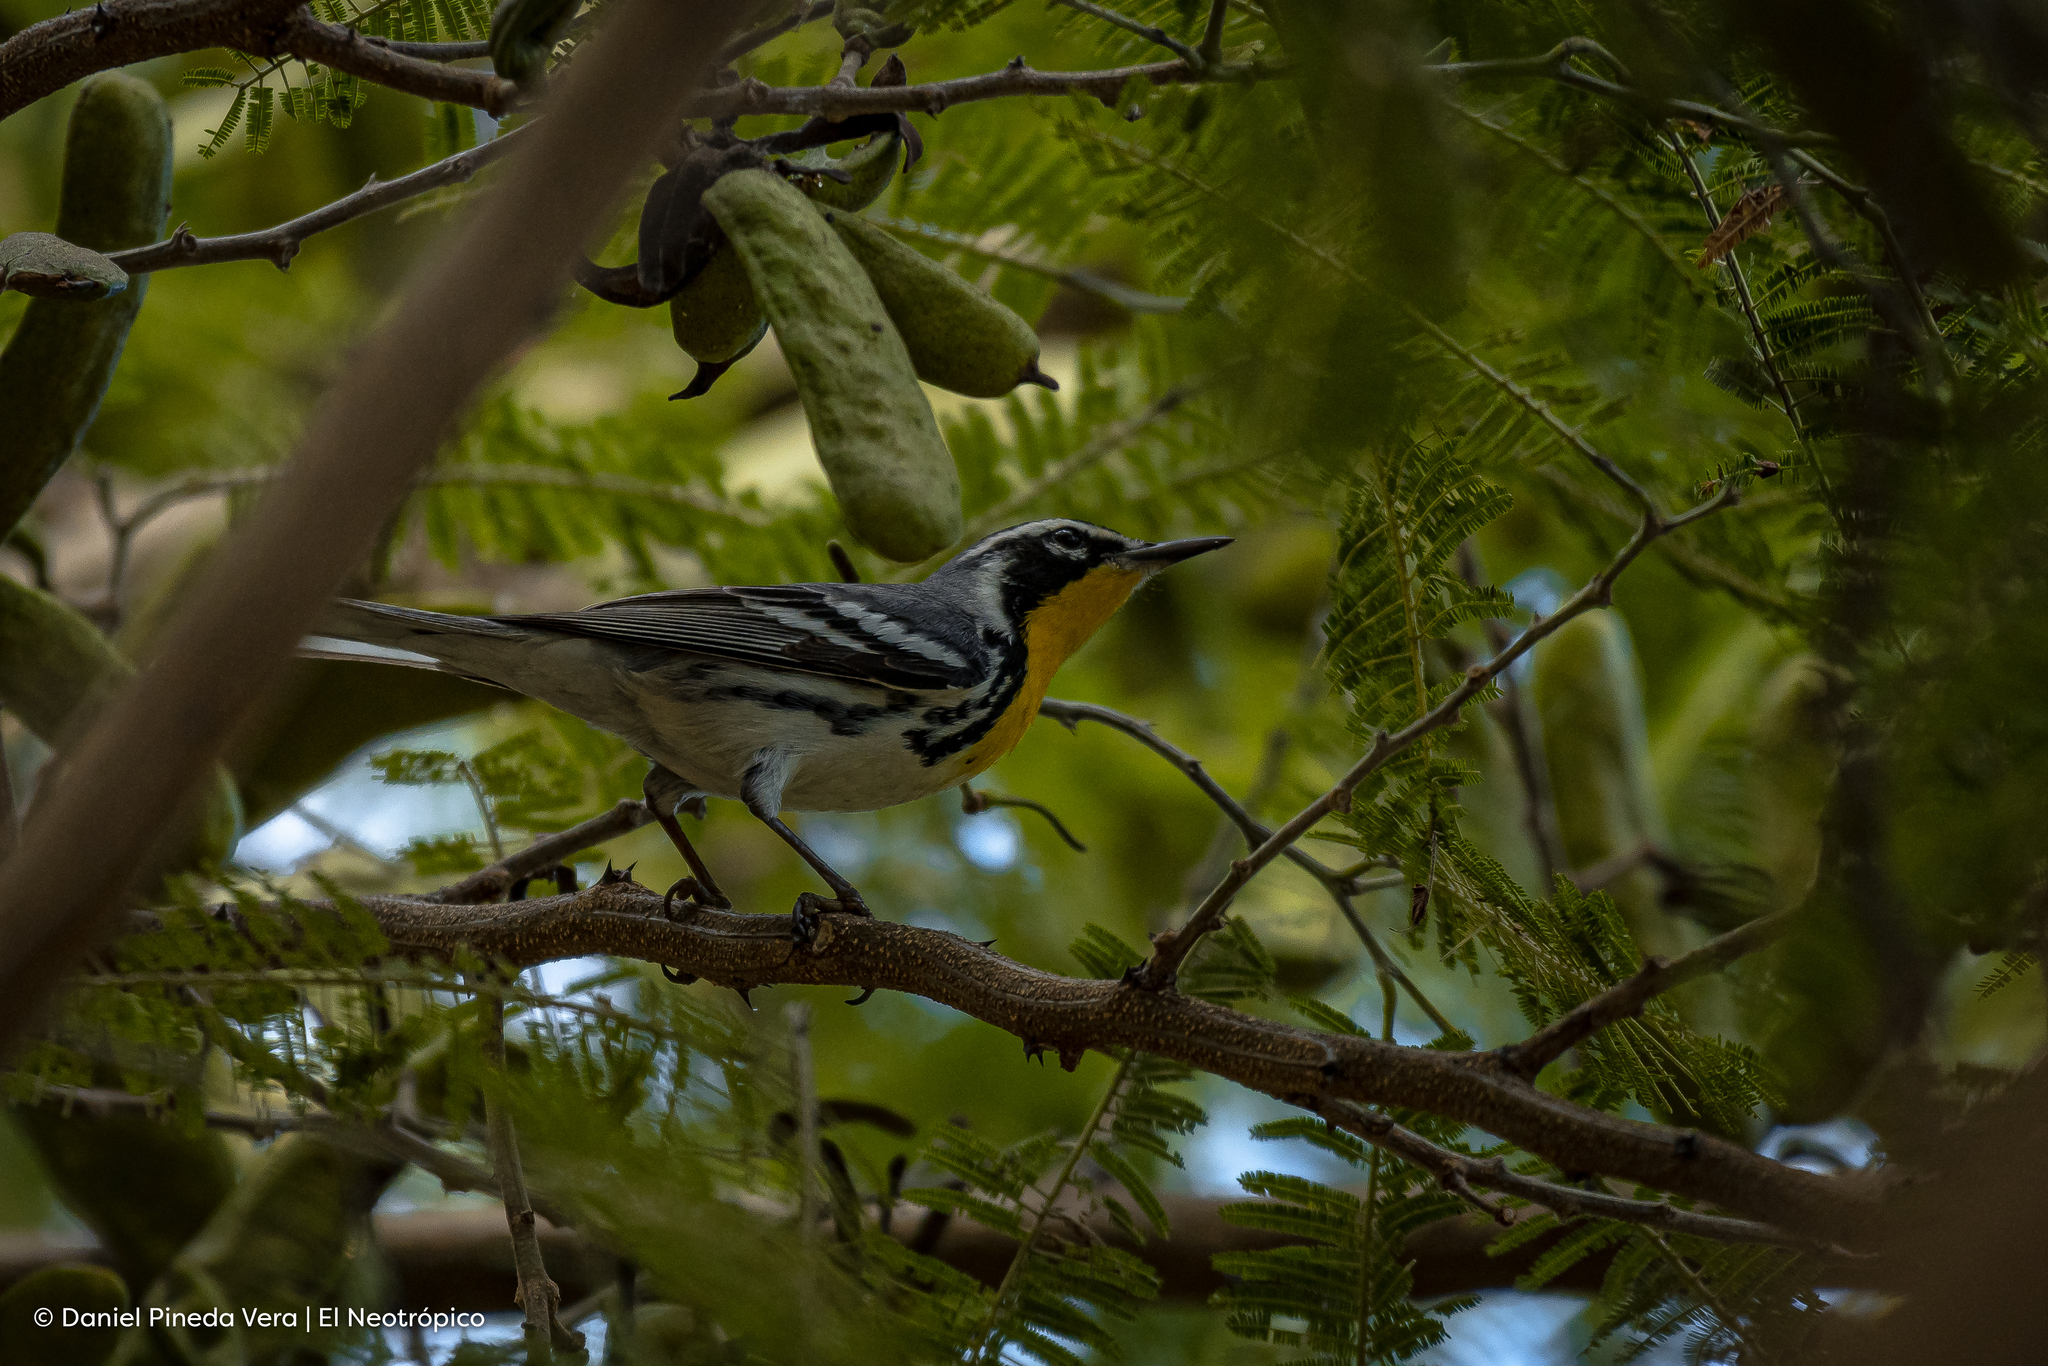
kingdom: Animalia
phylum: Chordata
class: Aves
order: Passeriformes
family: Parulidae
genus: Setophaga
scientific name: Setophaga dominica
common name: Yellow-throated warbler
